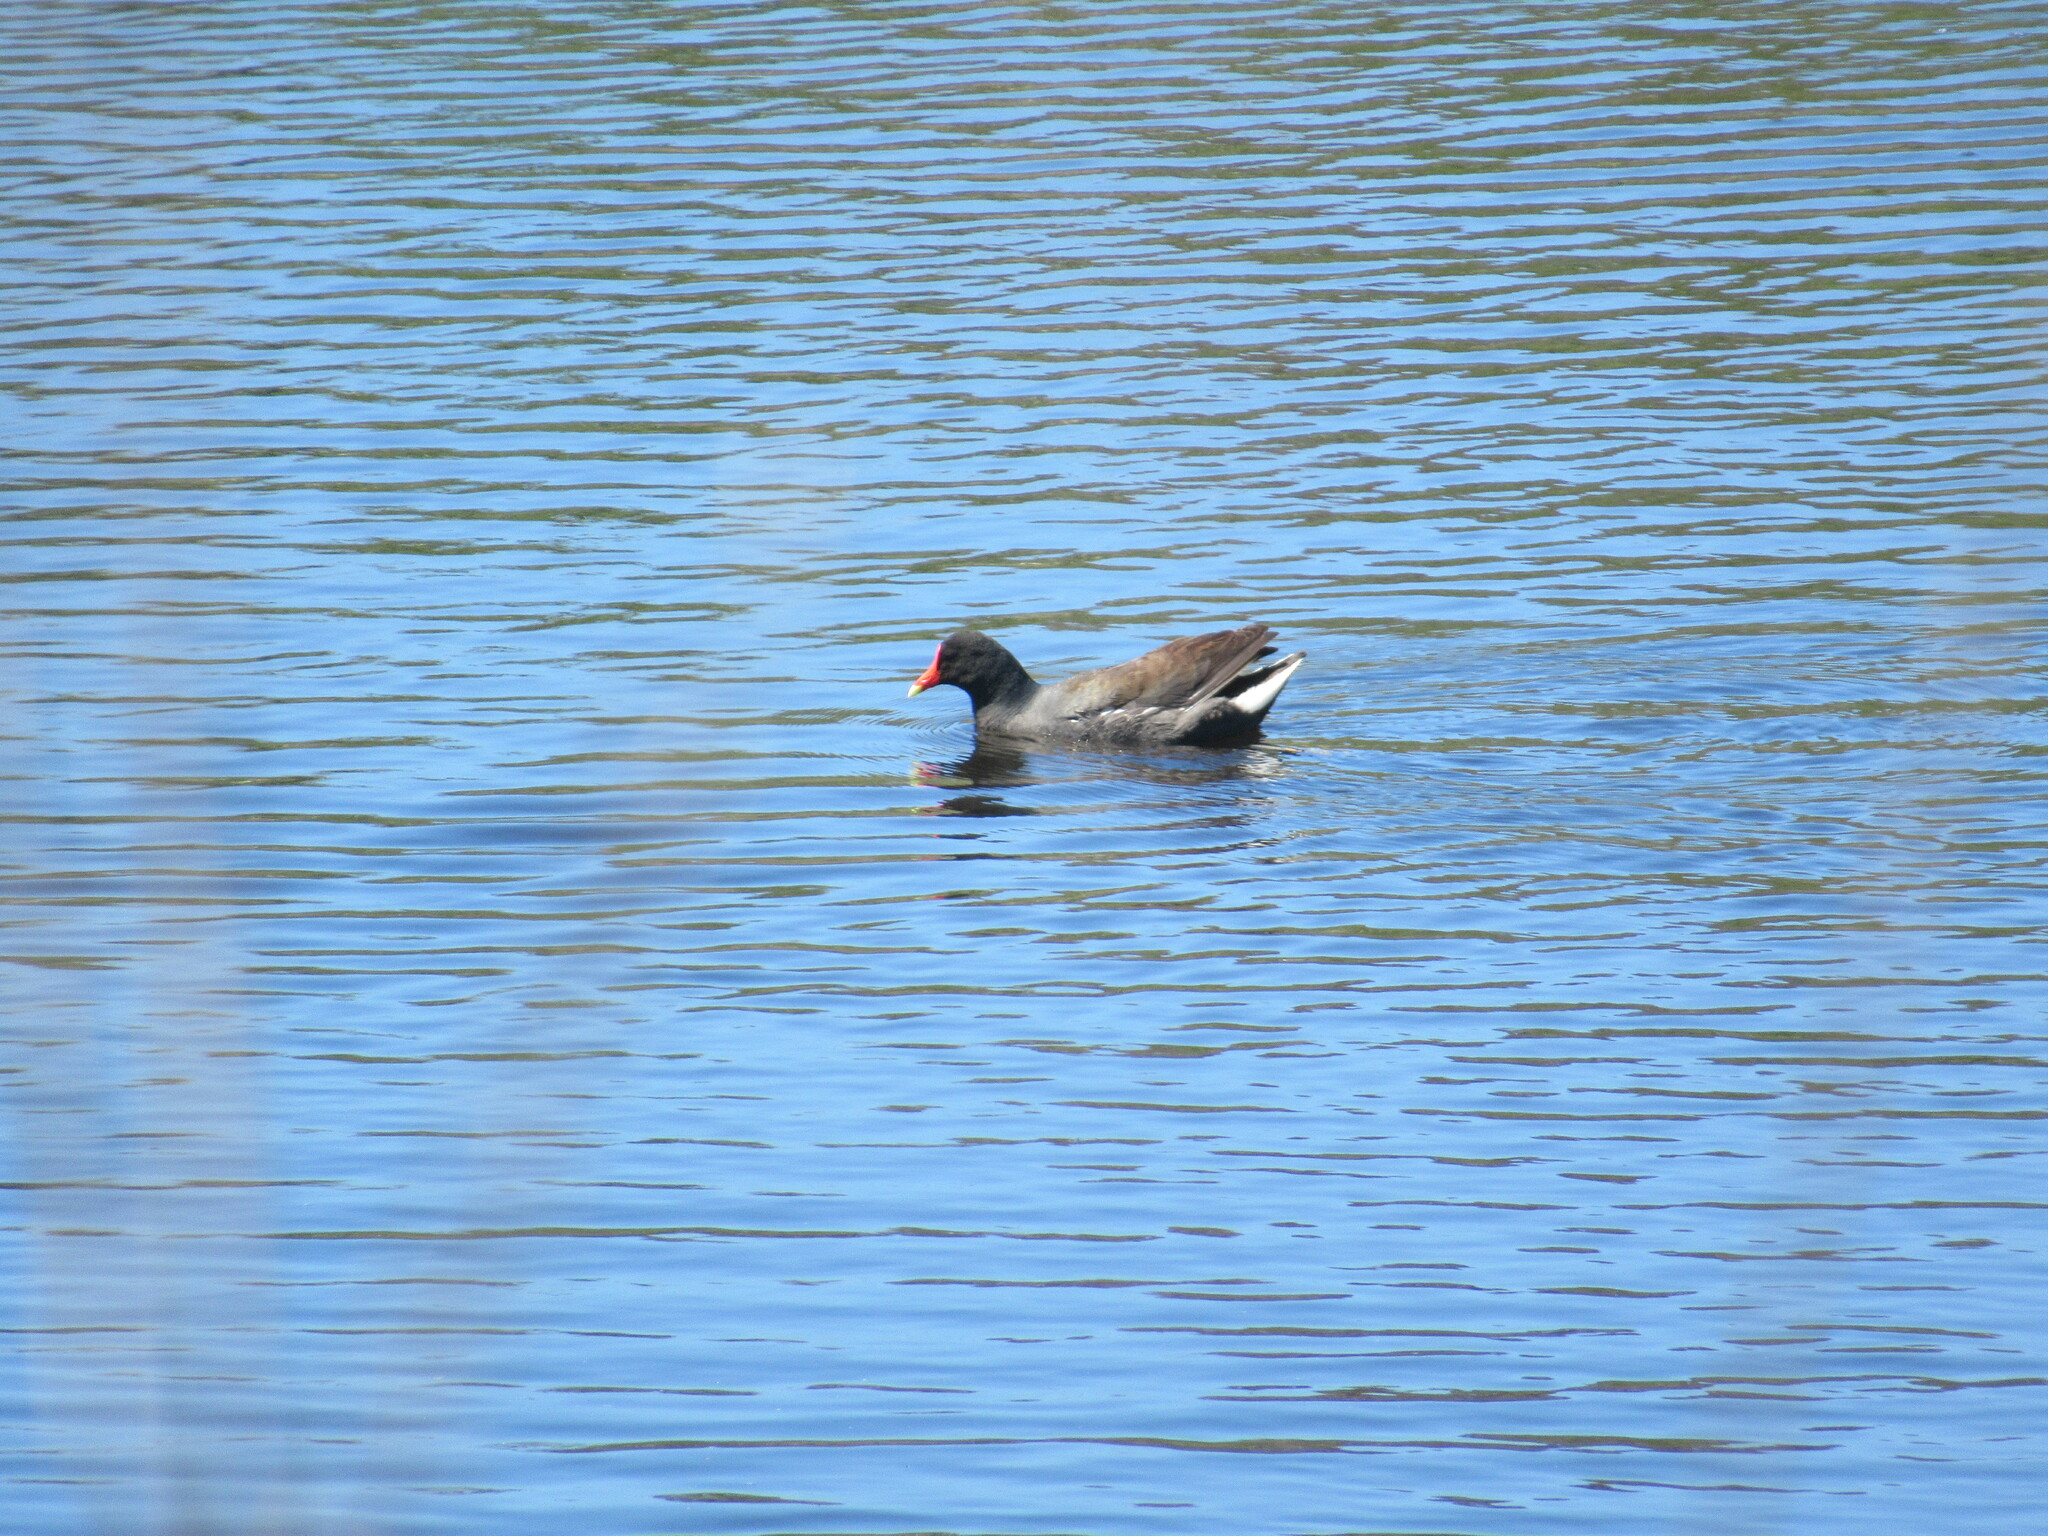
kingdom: Animalia
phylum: Chordata
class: Aves
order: Gruiformes
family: Rallidae
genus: Gallinula
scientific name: Gallinula chloropus
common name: Common moorhen
